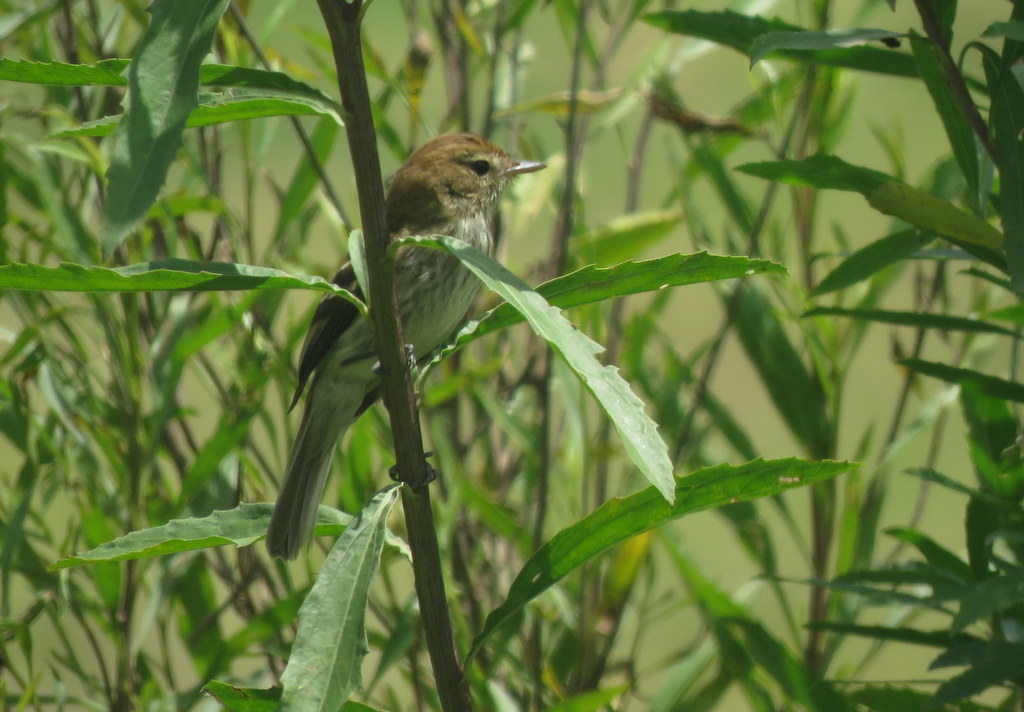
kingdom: Animalia
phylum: Chordata
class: Aves
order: Passeriformes
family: Tyrannidae
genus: Myiophobus
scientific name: Myiophobus fasciatus
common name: Bran-colored flycatcher
